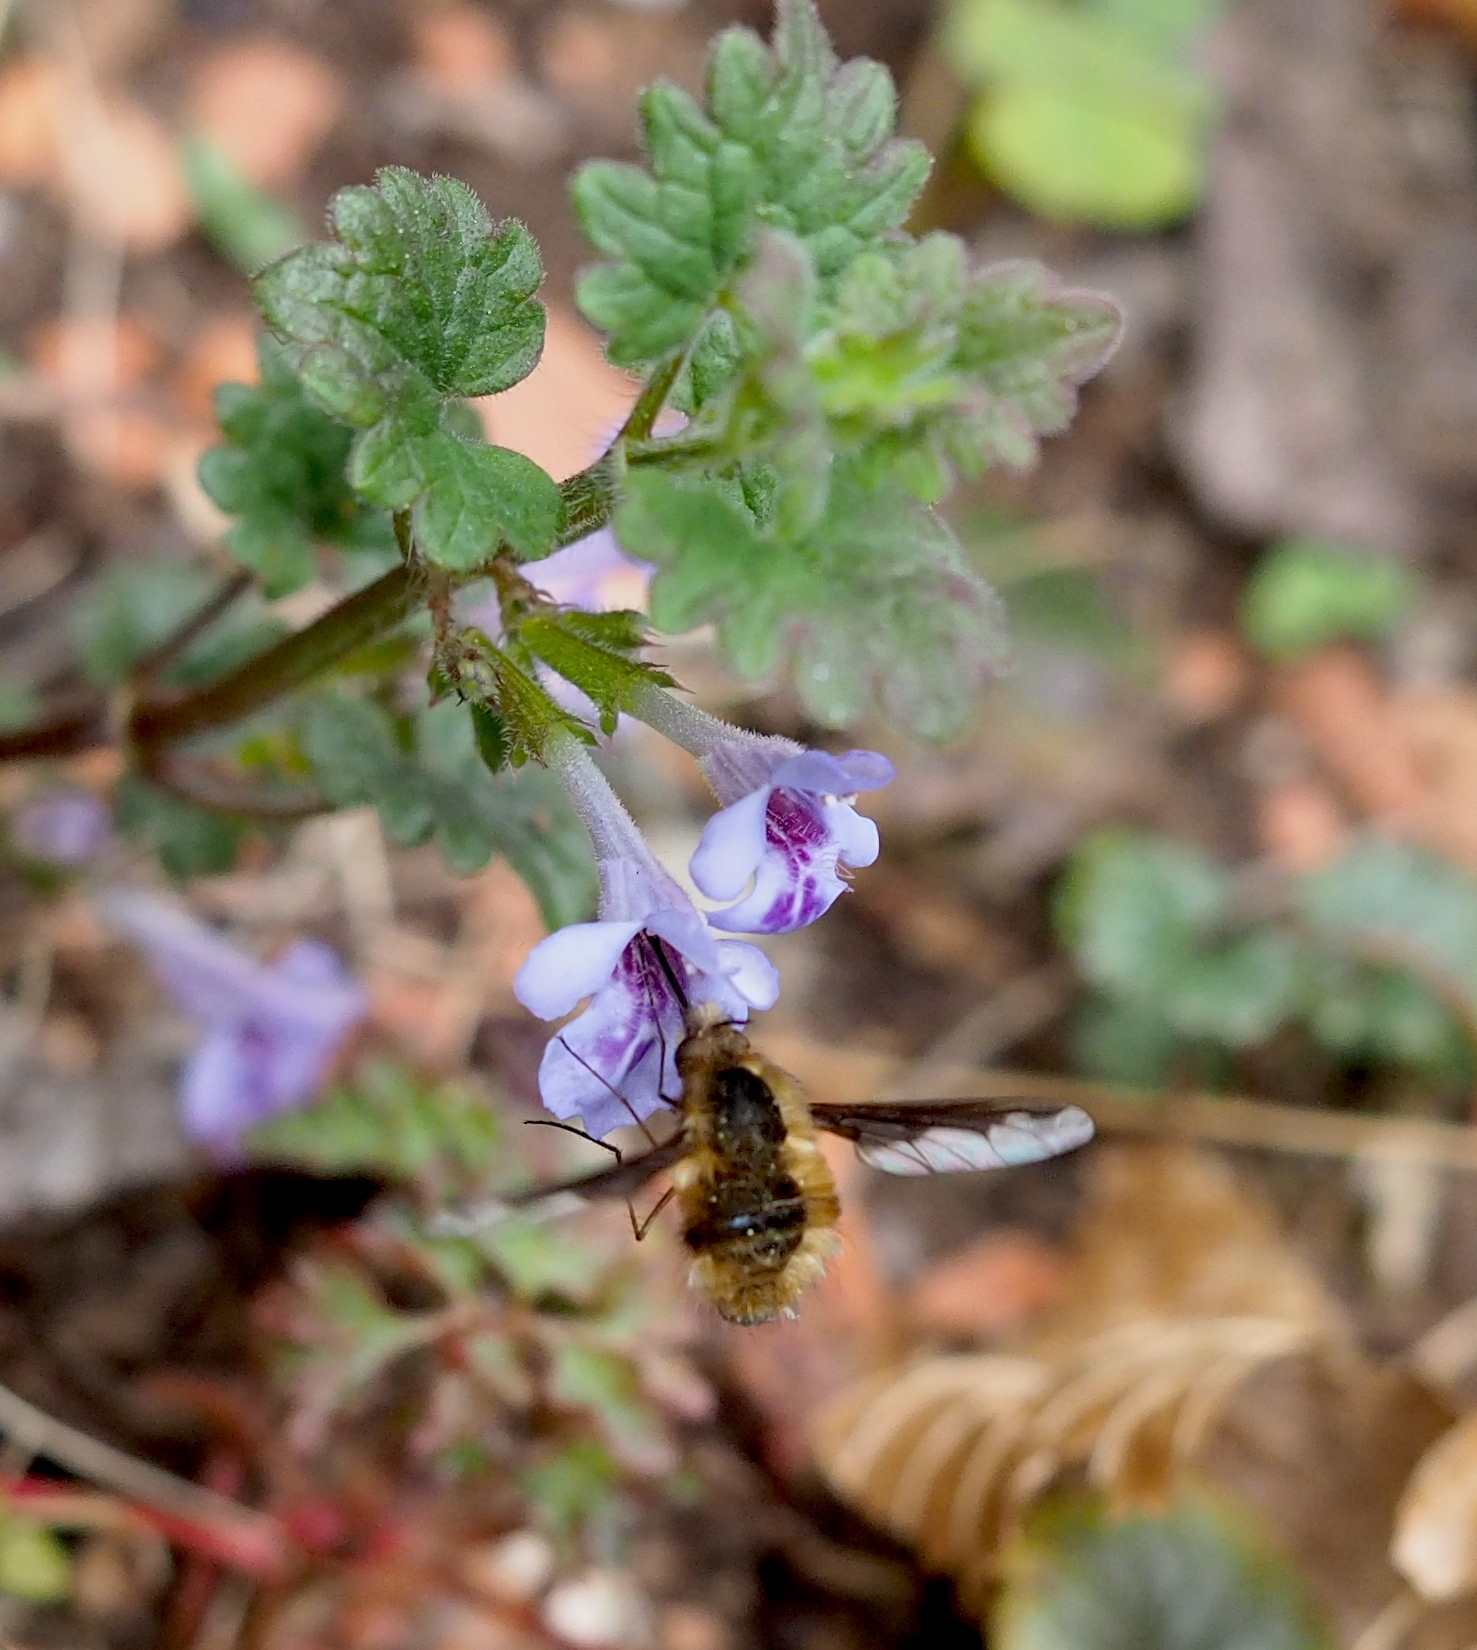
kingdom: Animalia
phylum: Arthropoda
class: Insecta
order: Diptera
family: Bombyliidae
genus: Bombylius
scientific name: Bombylius major
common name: Bee fly
